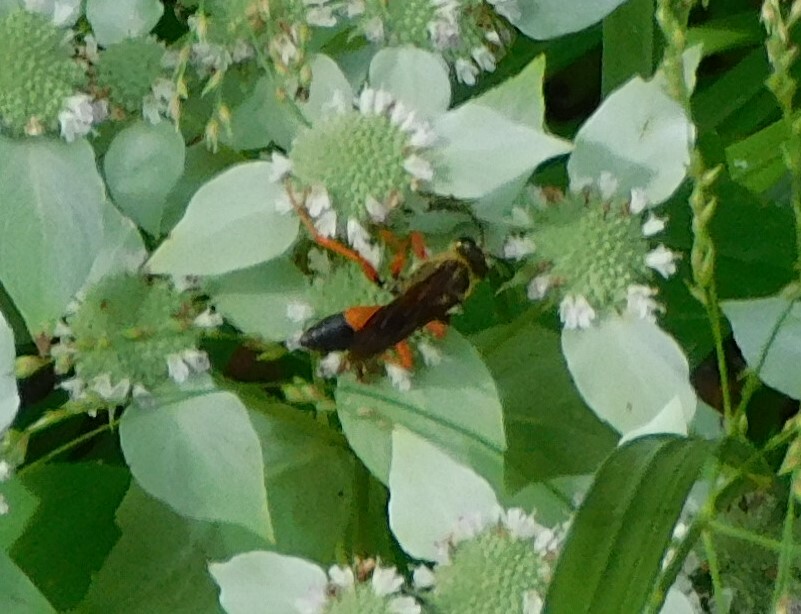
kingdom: Animalia
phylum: Arthropoda
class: Insecta
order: Hymenoptera
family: Sphecidae
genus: Sphex
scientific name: Sphex ichneumoneus
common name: Great golden digger wasp
